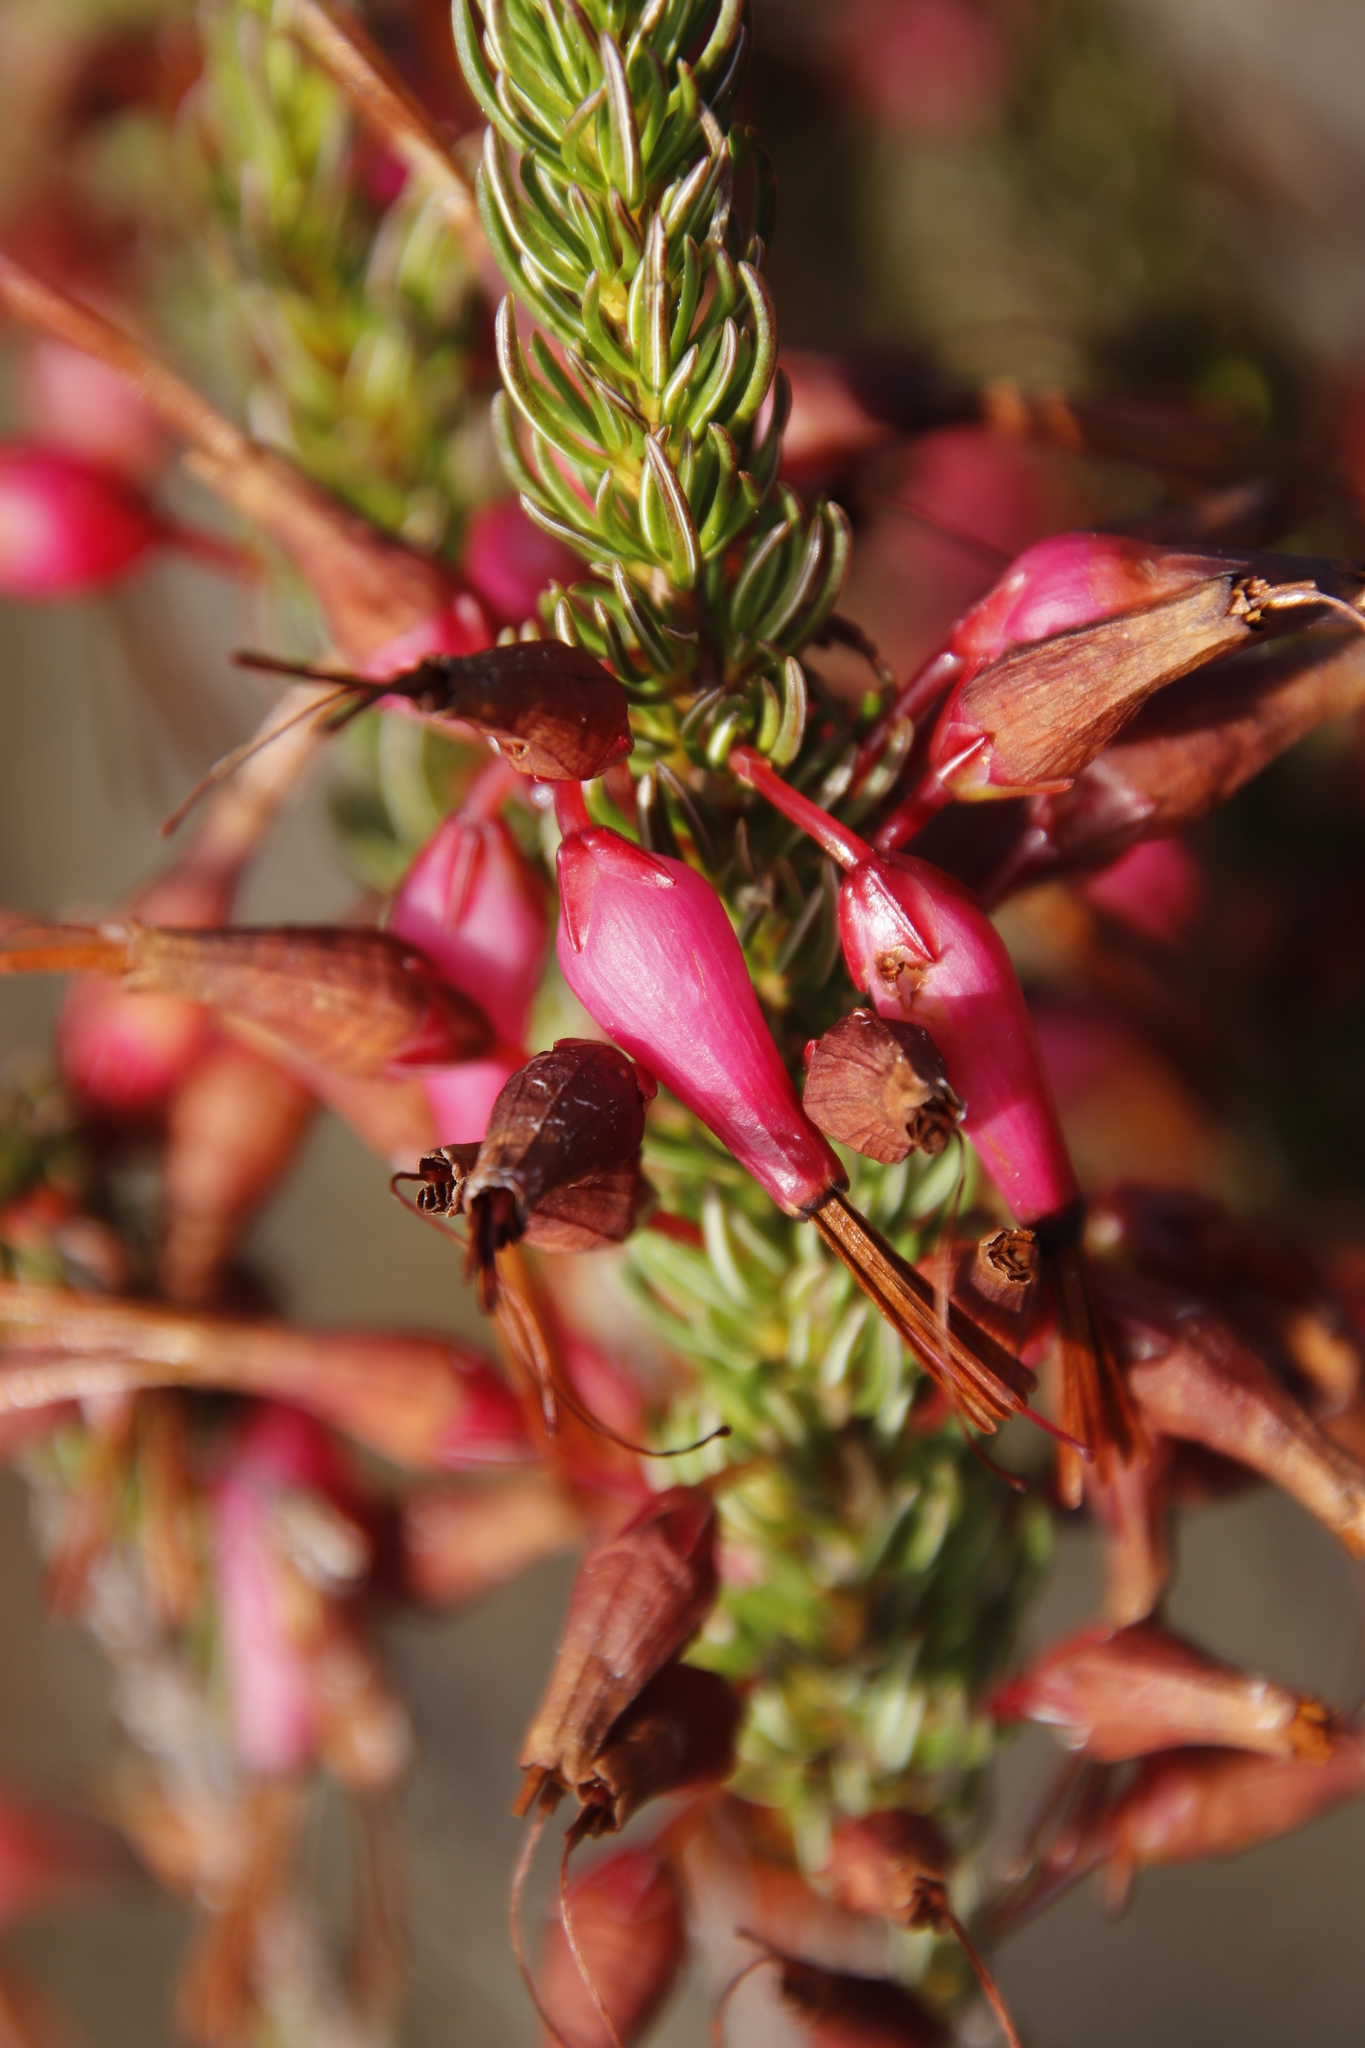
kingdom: Plantae
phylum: Tracheophyta
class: Magnoliopsida
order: Ericales
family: Ericaceae
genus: Erica
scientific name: Erica plukenetii
